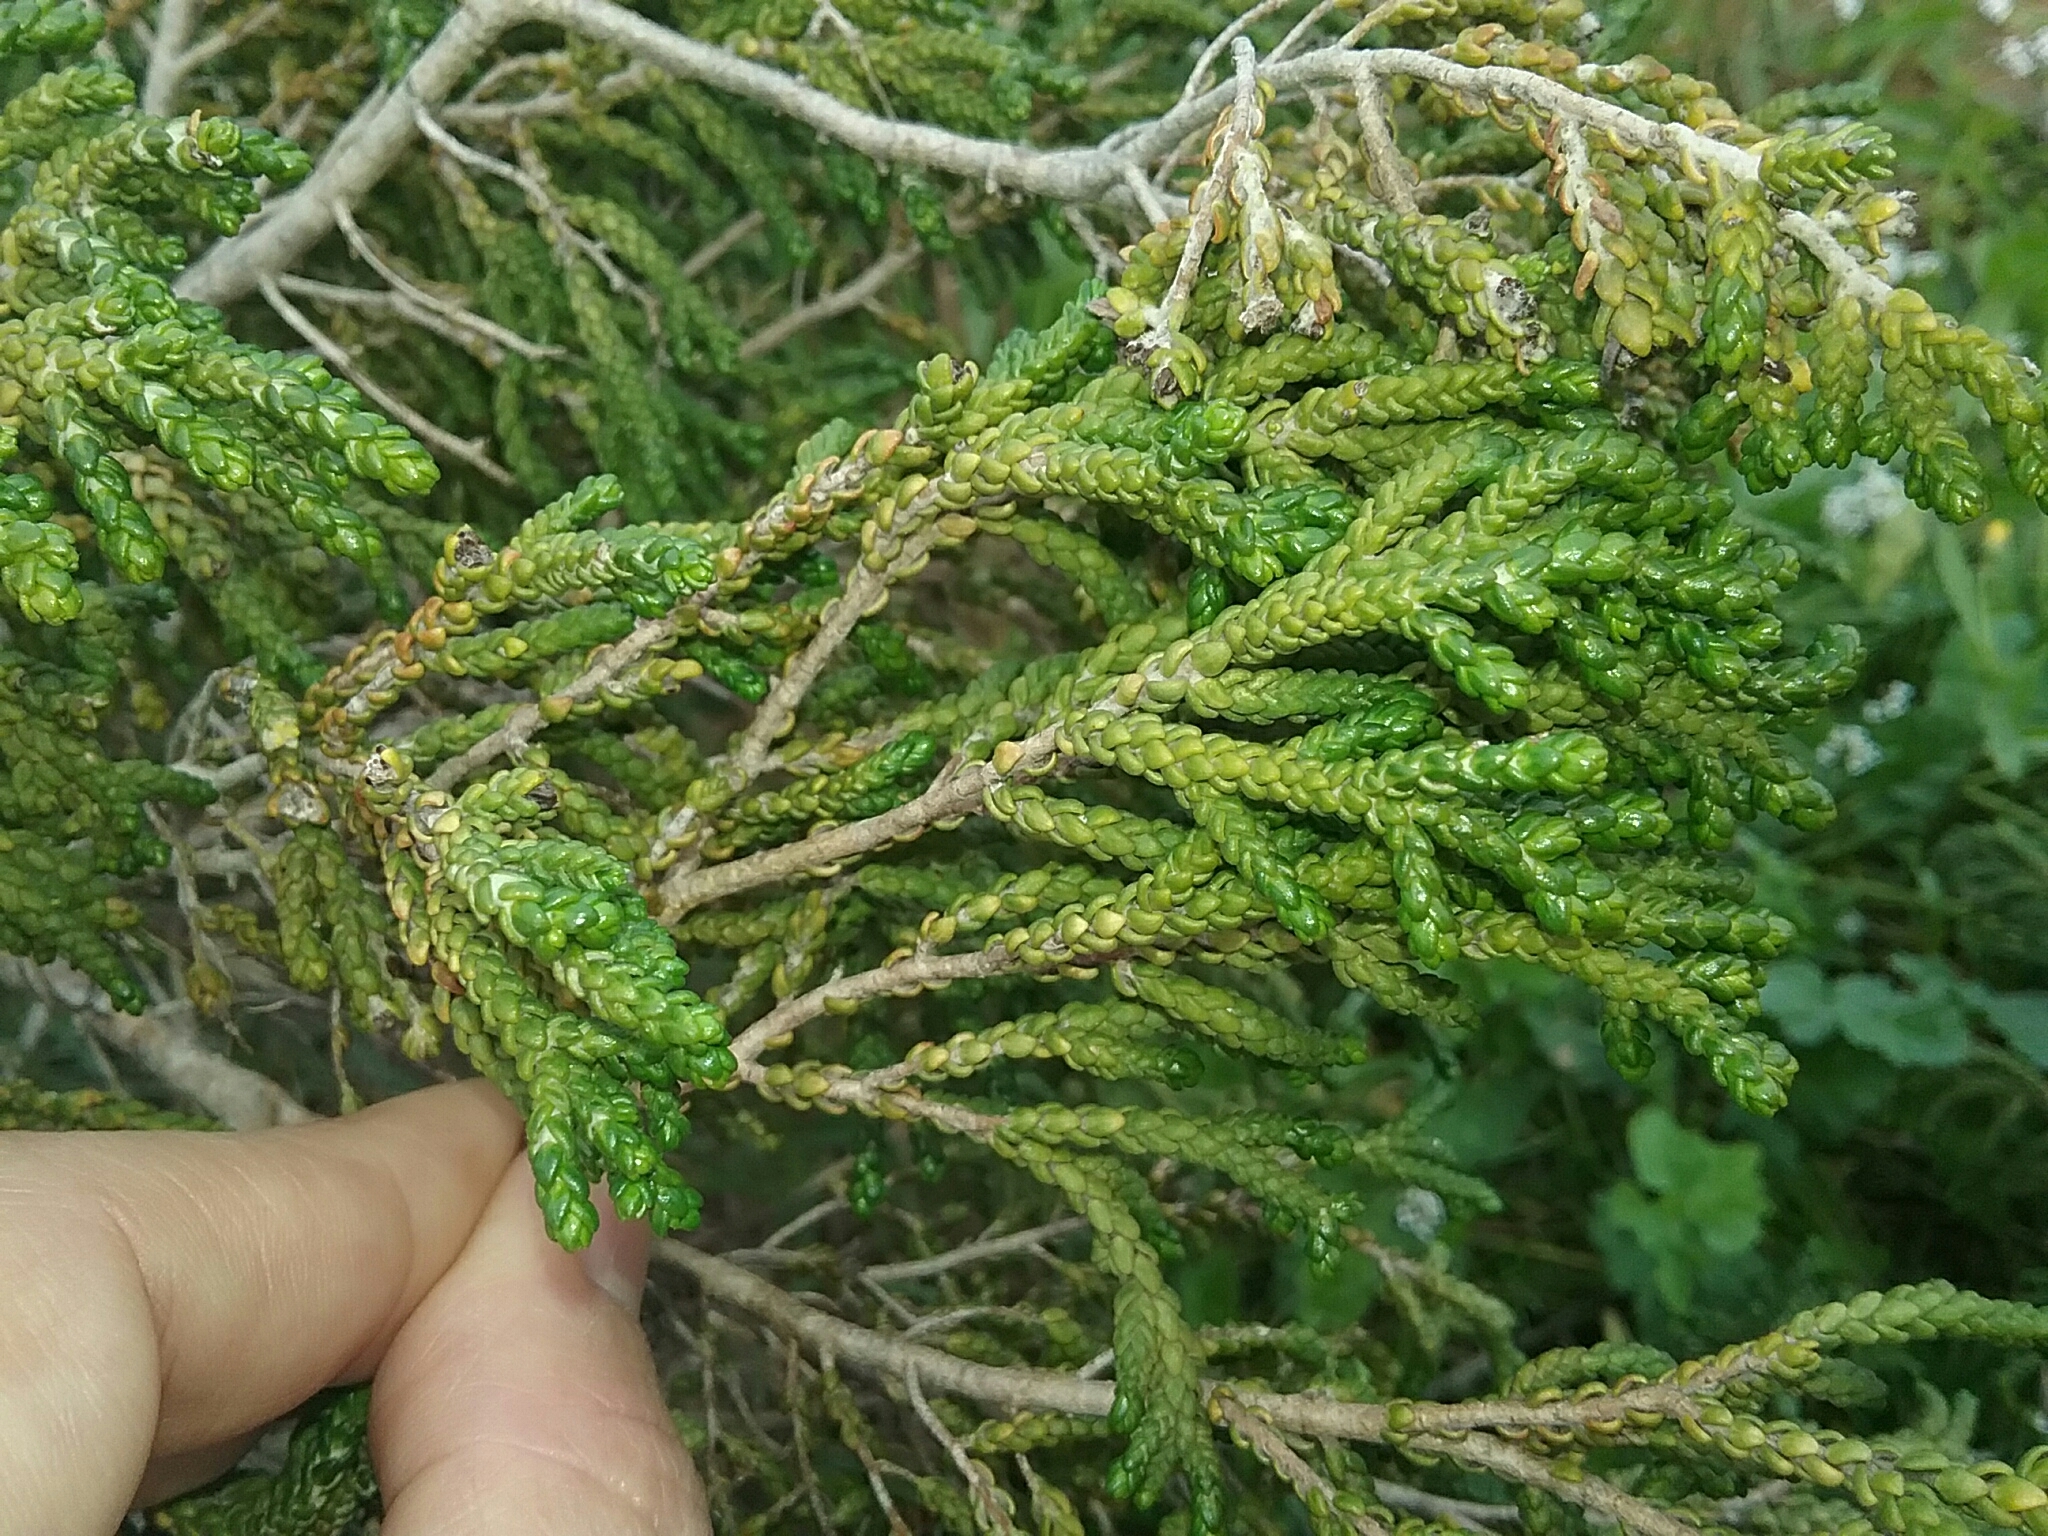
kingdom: Plantae
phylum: Tracheophyta
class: Magnoliopsida
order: Malvales
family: Thymelaeaceae
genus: Thymelaea
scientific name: Thymelaea hirsuta
